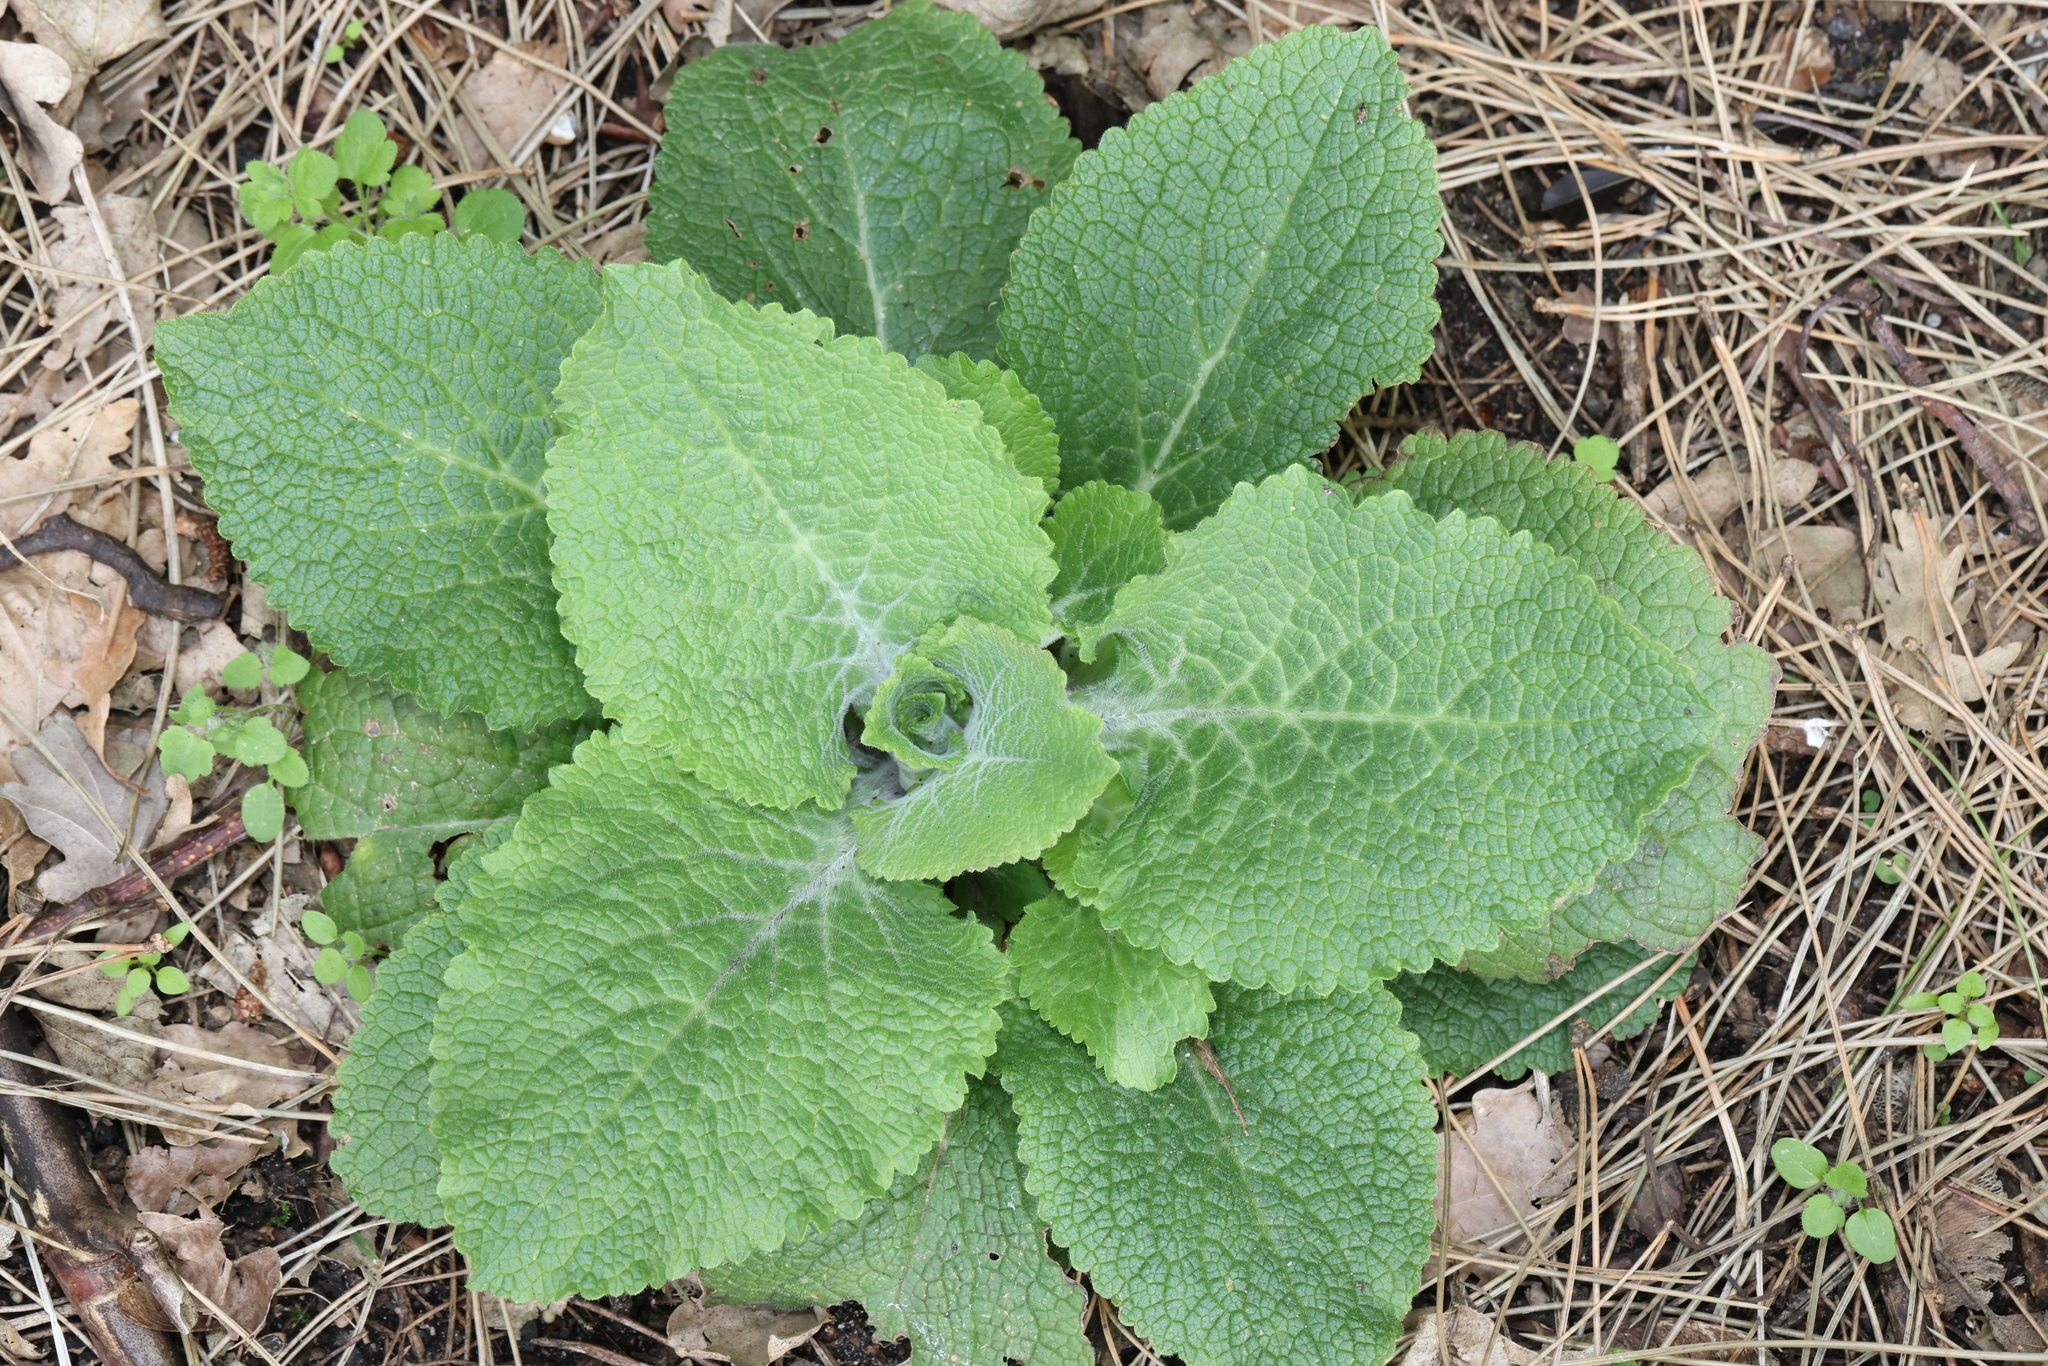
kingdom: Plantae
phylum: Tracheophyta
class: Magnoliopsida
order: Lamiales
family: Plantaginaceae
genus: Digitalis
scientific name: Digitalis purpurea
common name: Foxglove
